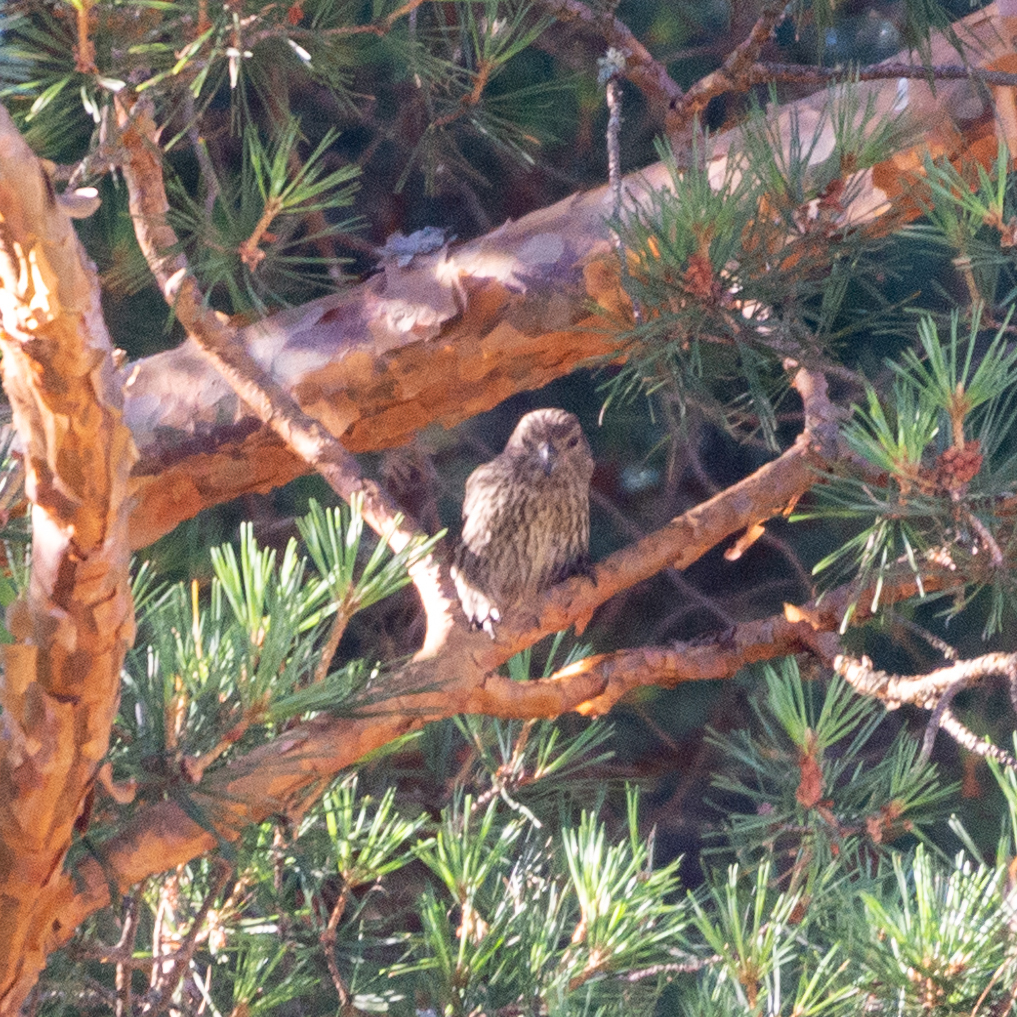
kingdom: Animalia
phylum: Chordata
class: Aves
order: Passeriformes
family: Fringillidae
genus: Loxia
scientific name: Loxia curvirostra
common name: Red crossbill
